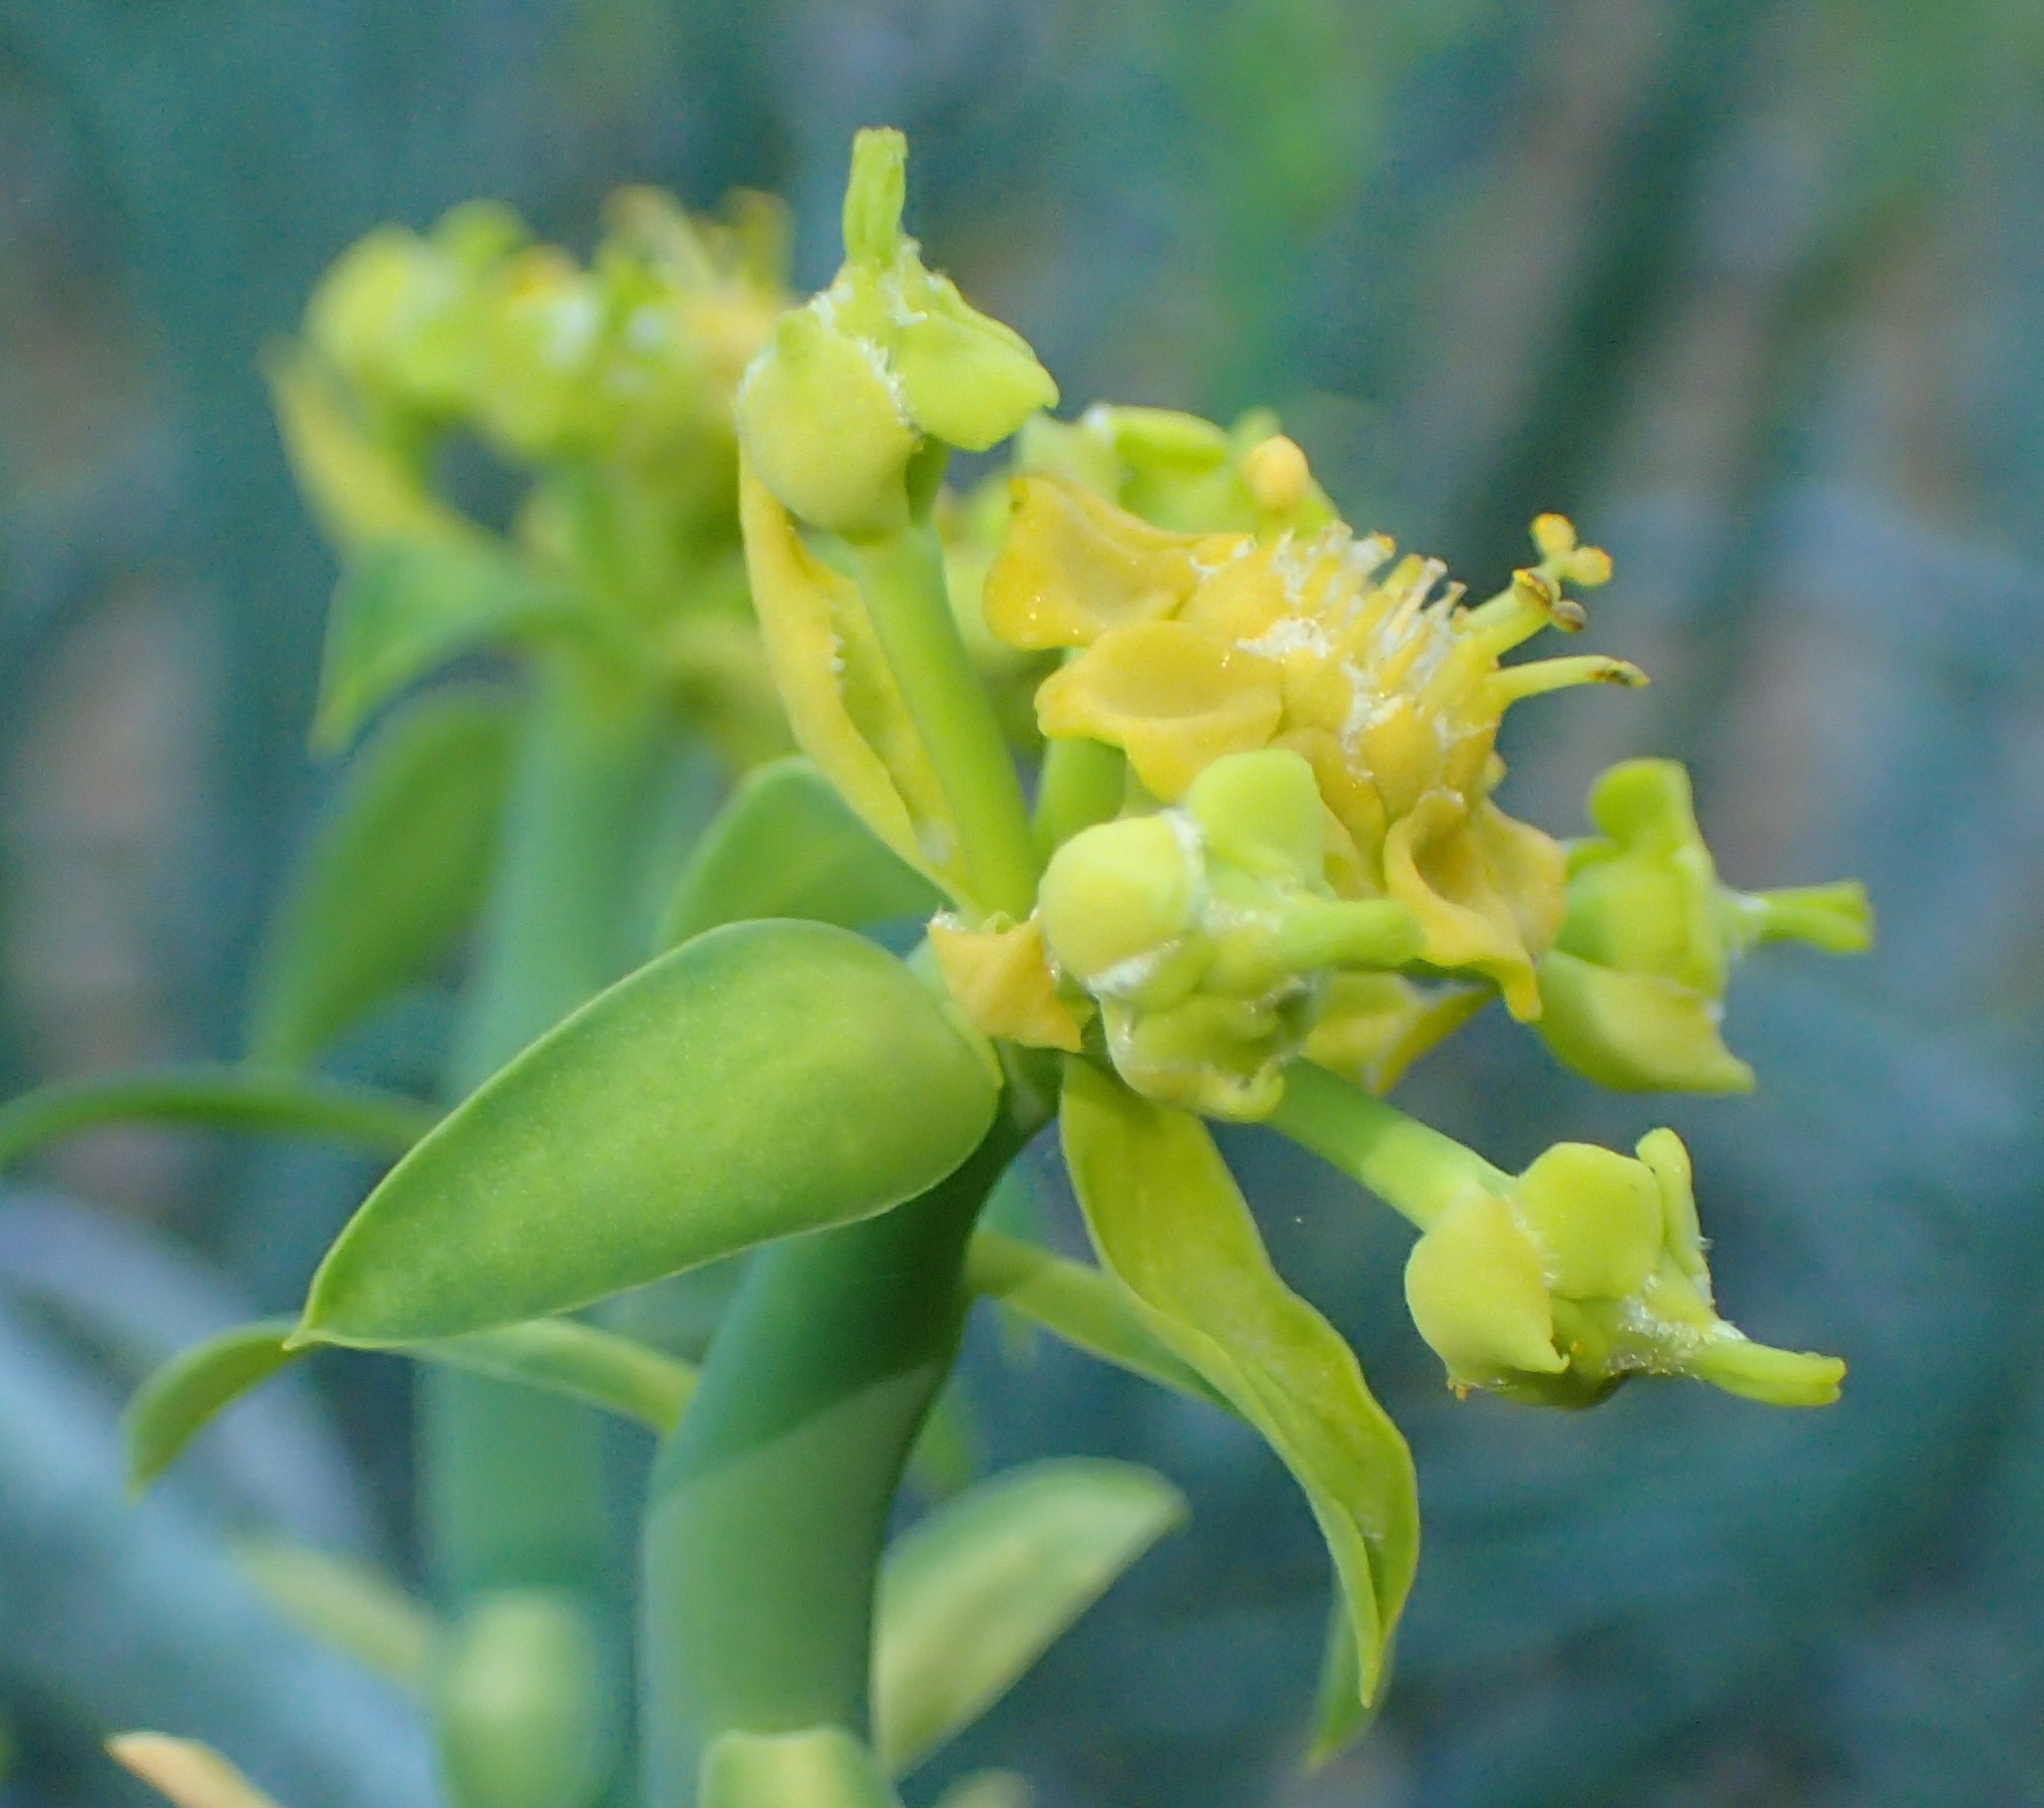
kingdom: Plantae
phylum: Tracheophyta
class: Magnoliopsida
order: Malpighiales
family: Euphorbiaceae
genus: Euphorbia
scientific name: Euphorbia mauritanica
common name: Jackal's-food
